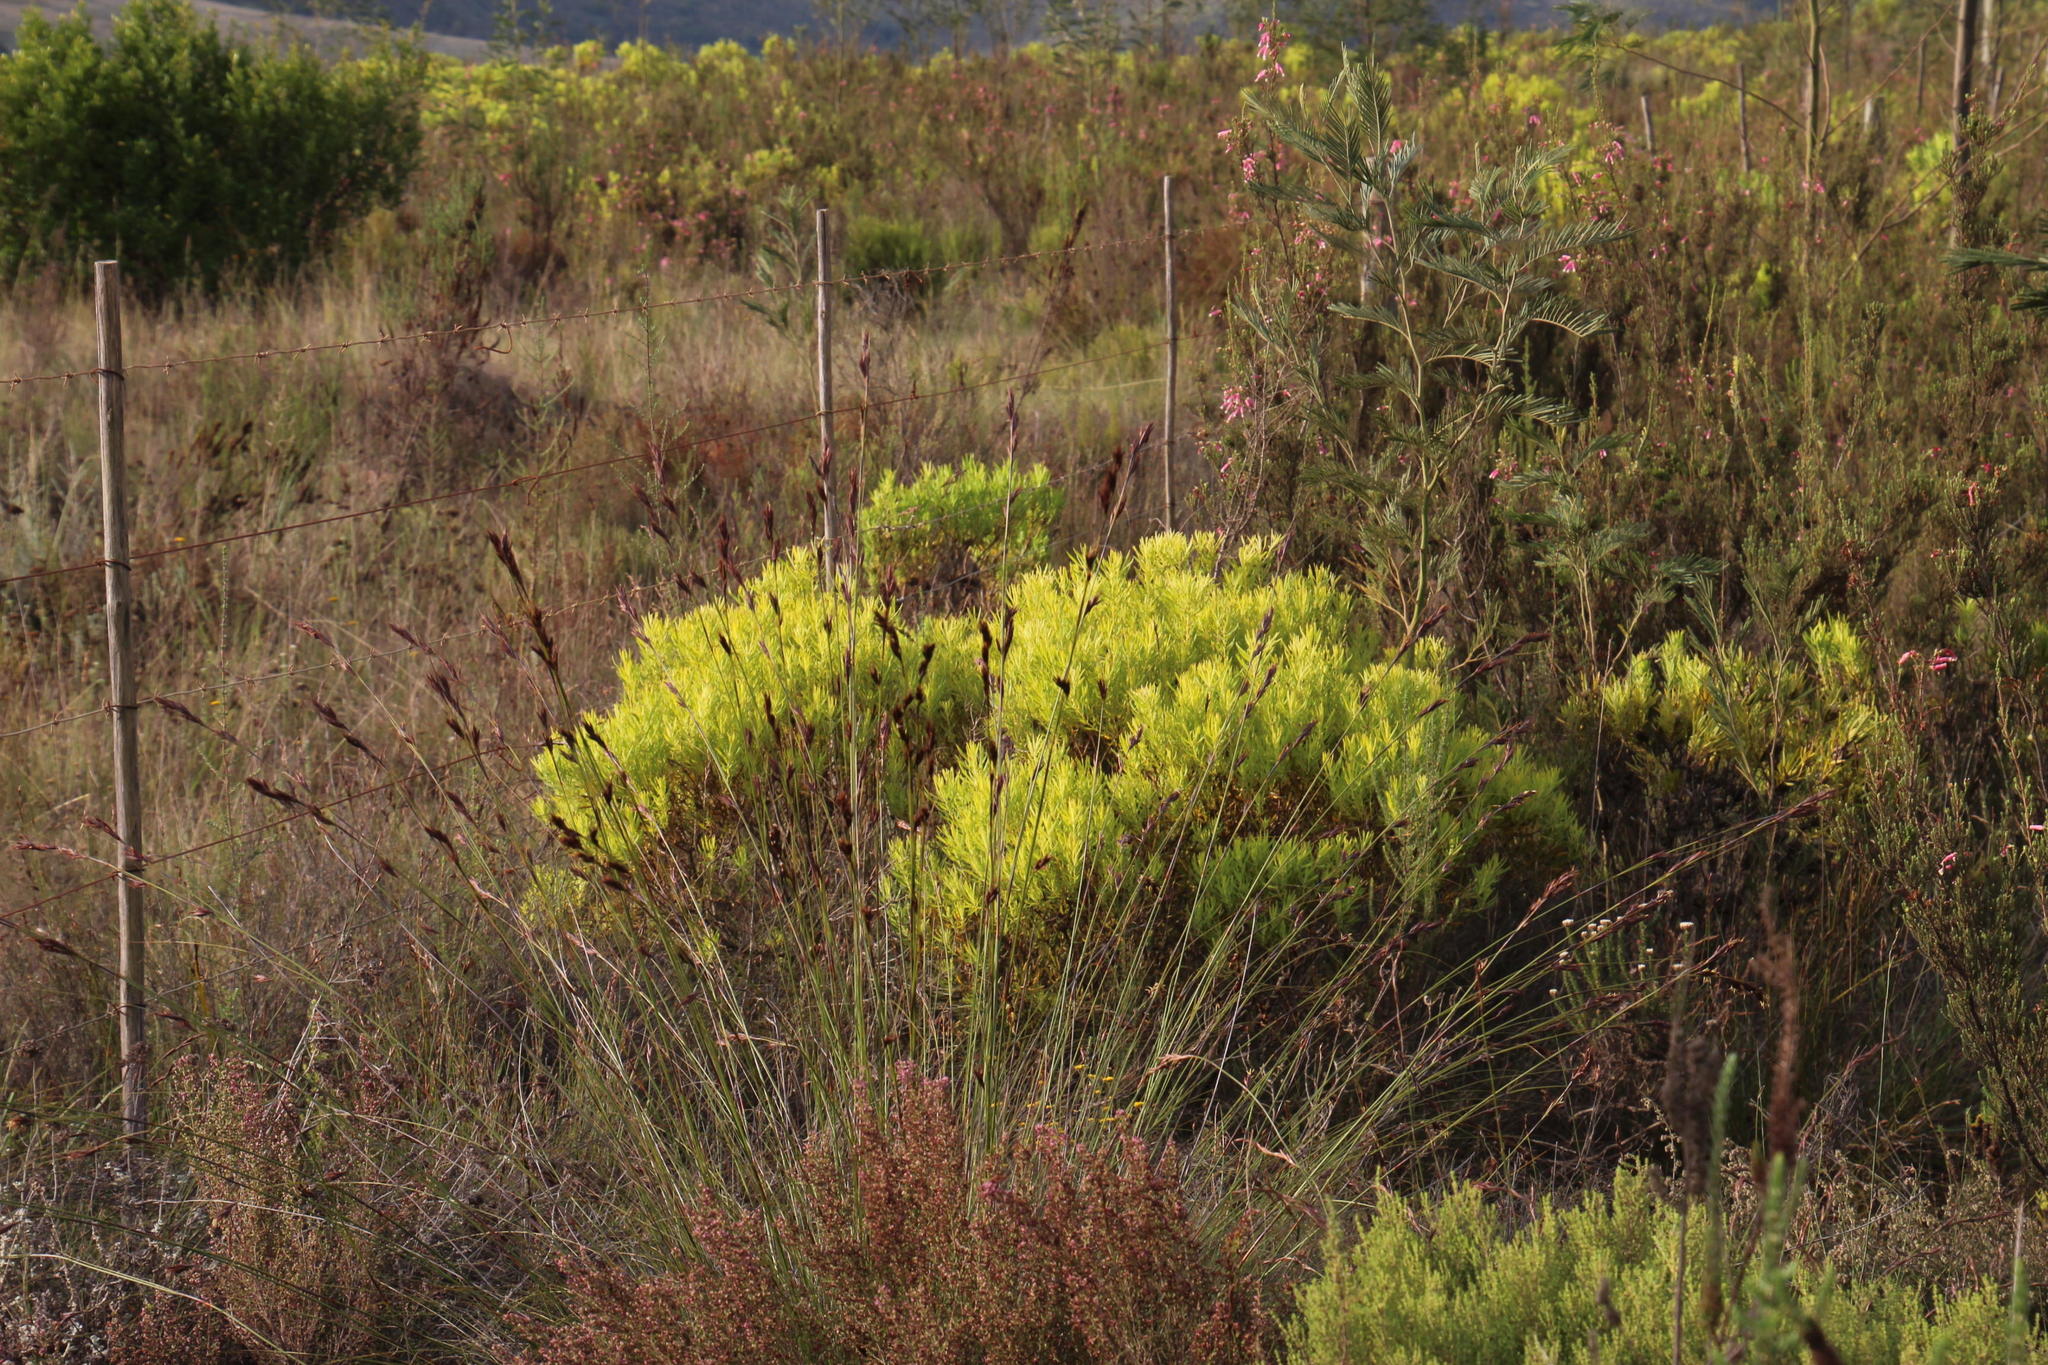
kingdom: Plantae
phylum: Tracheophyta
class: Magnoliopsida
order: Proteales
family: Proteaceae
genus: Leucadendron
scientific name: Leucadendron salignum
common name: Common sunshine conebush
